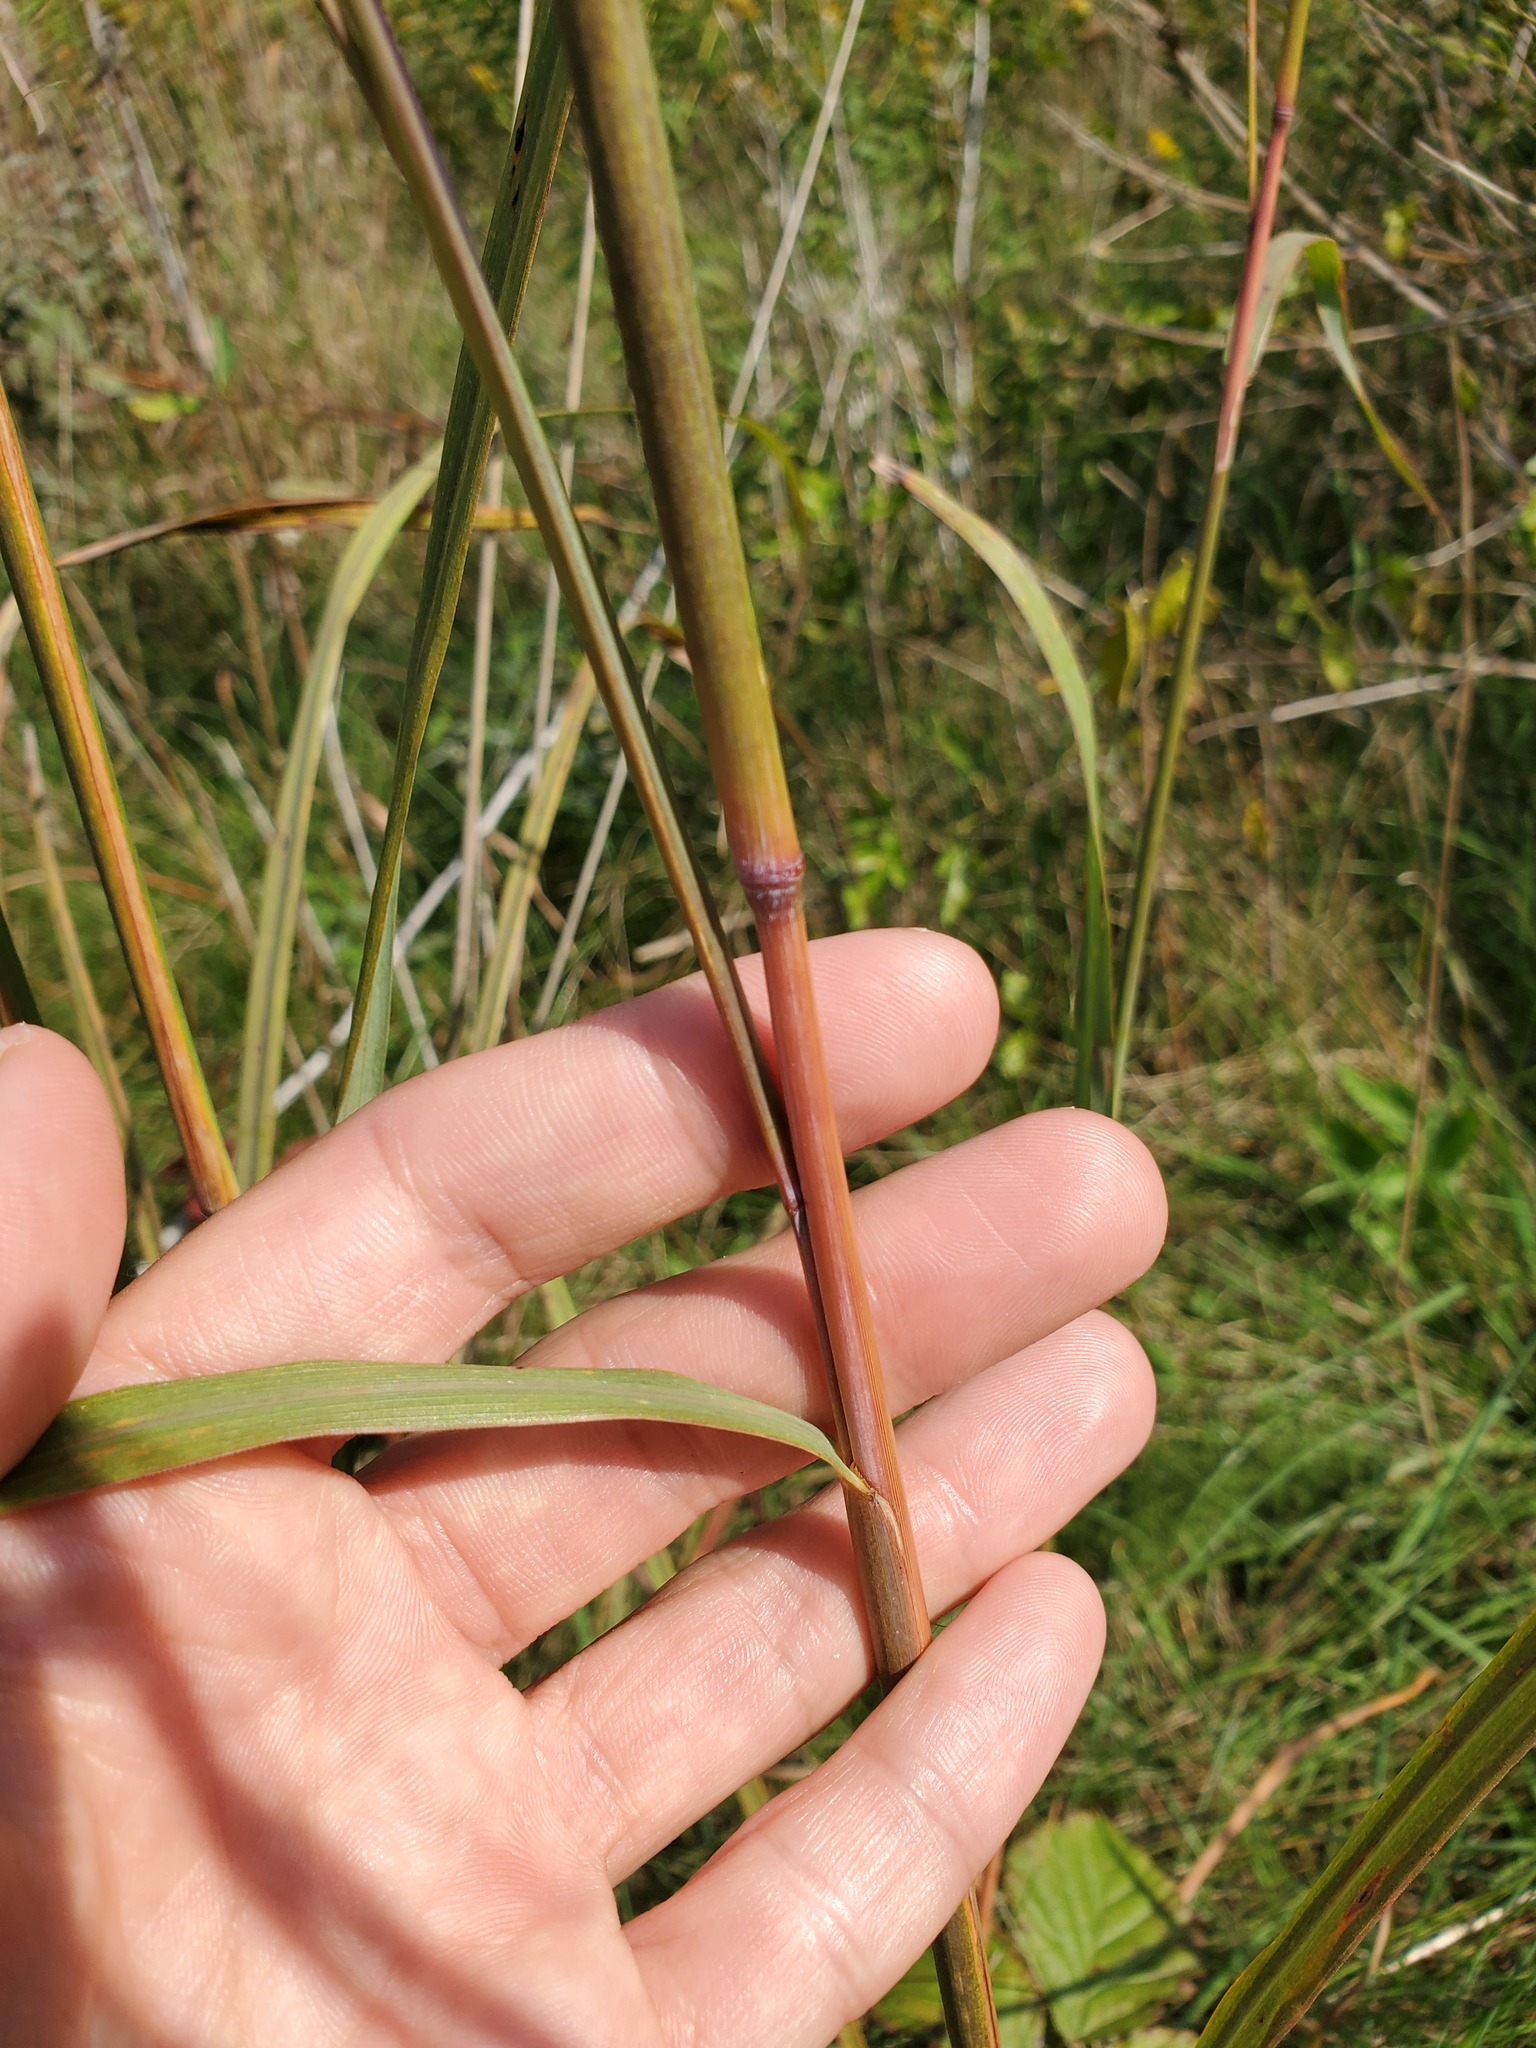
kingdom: Plantae
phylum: Tracheophyta
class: Liliopsida
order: Poales
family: Poaceae
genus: Andropogon
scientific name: Andropogon gerardi
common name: Big bluestem
